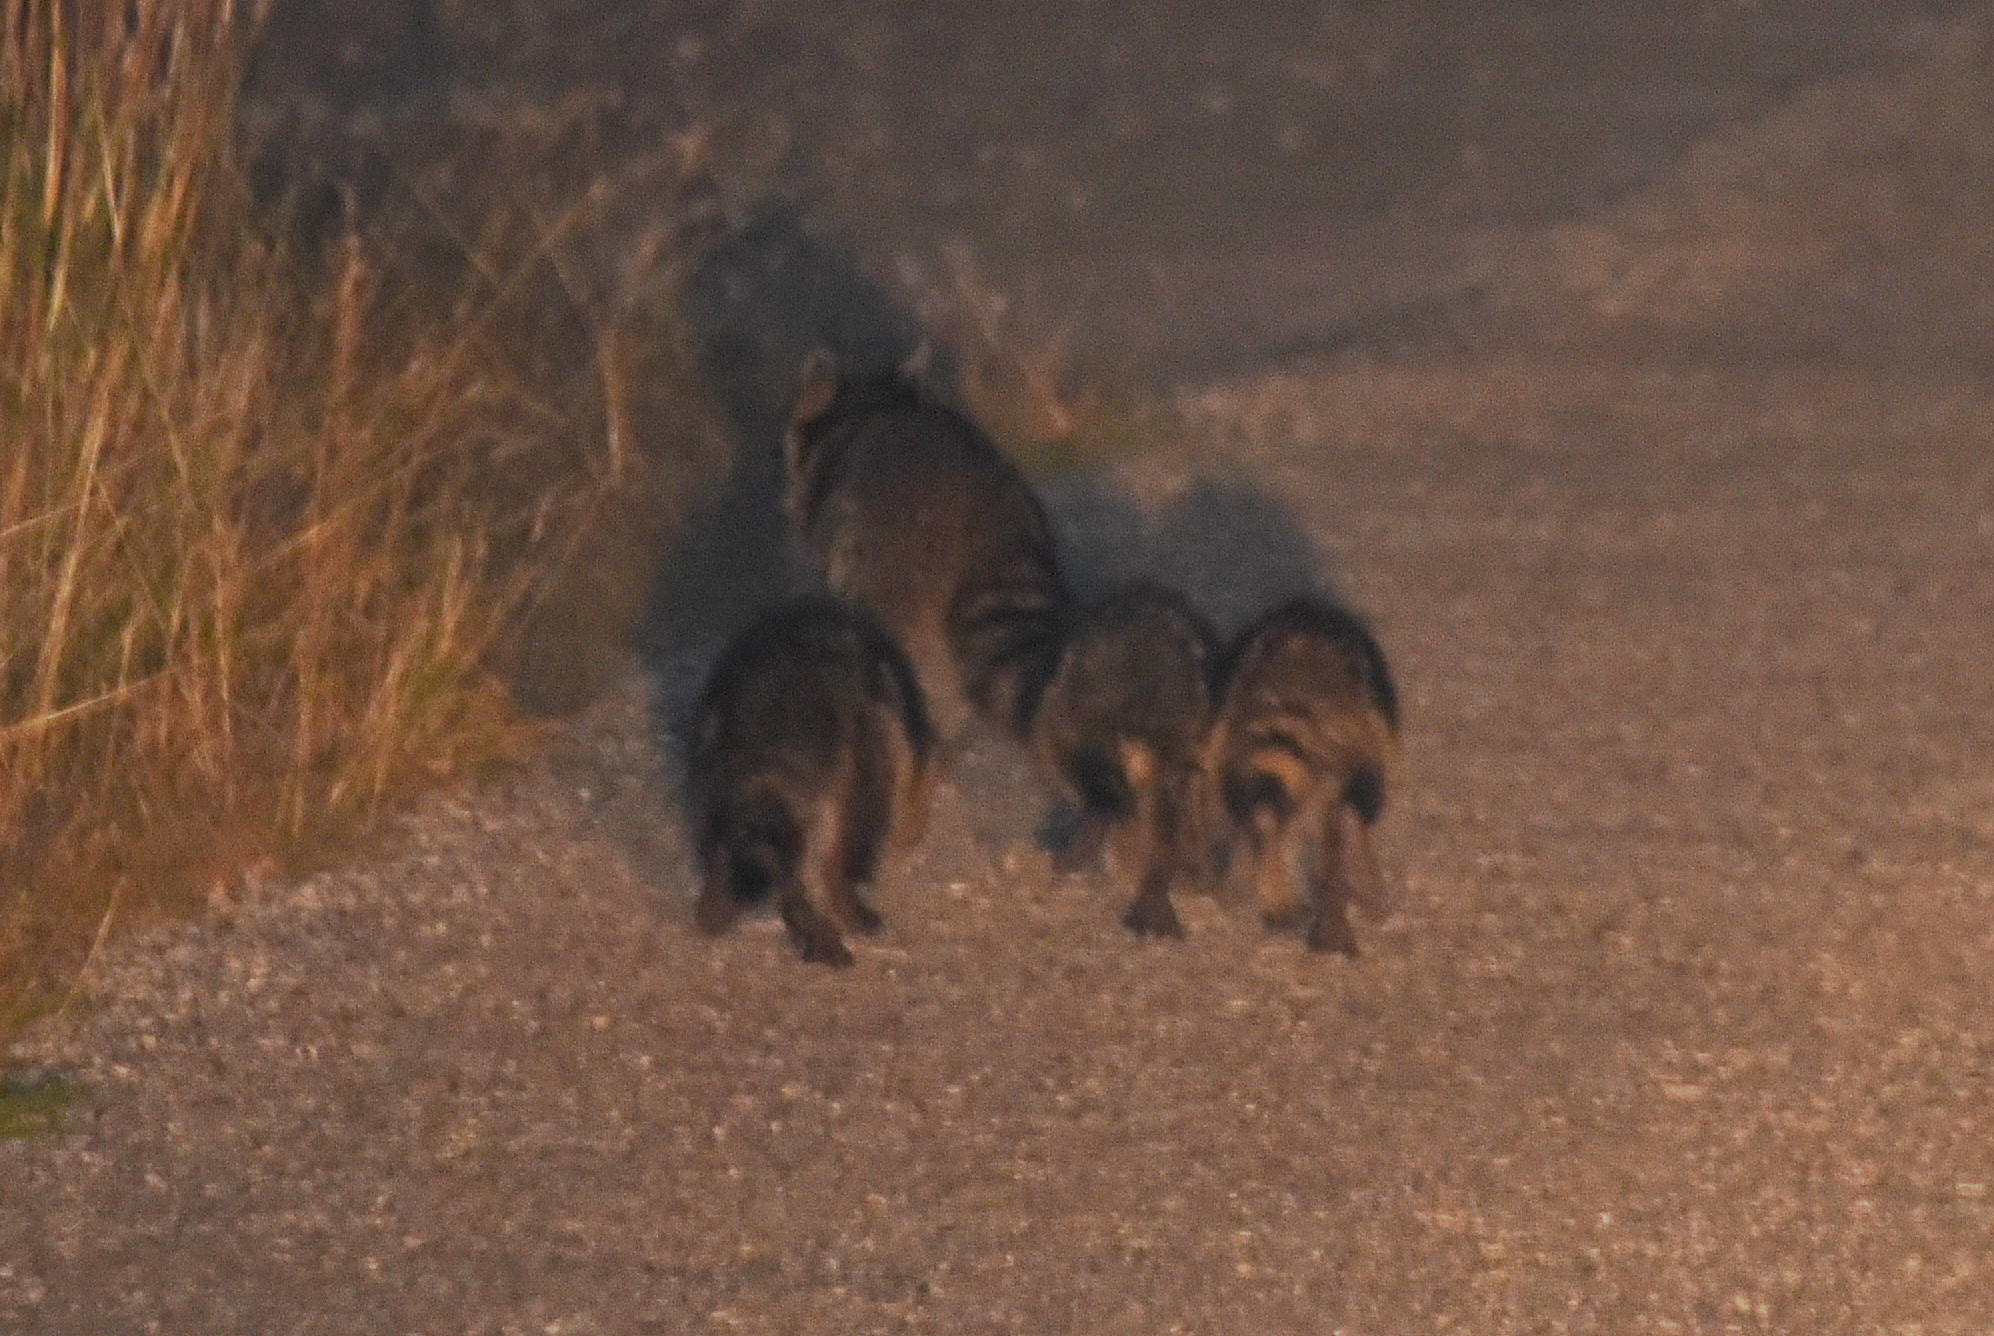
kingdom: Animalia
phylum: Chordata
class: Mammalia
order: Carnivora
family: Procyonidae
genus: Procyon
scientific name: Procyon lotor
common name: Raccoon
